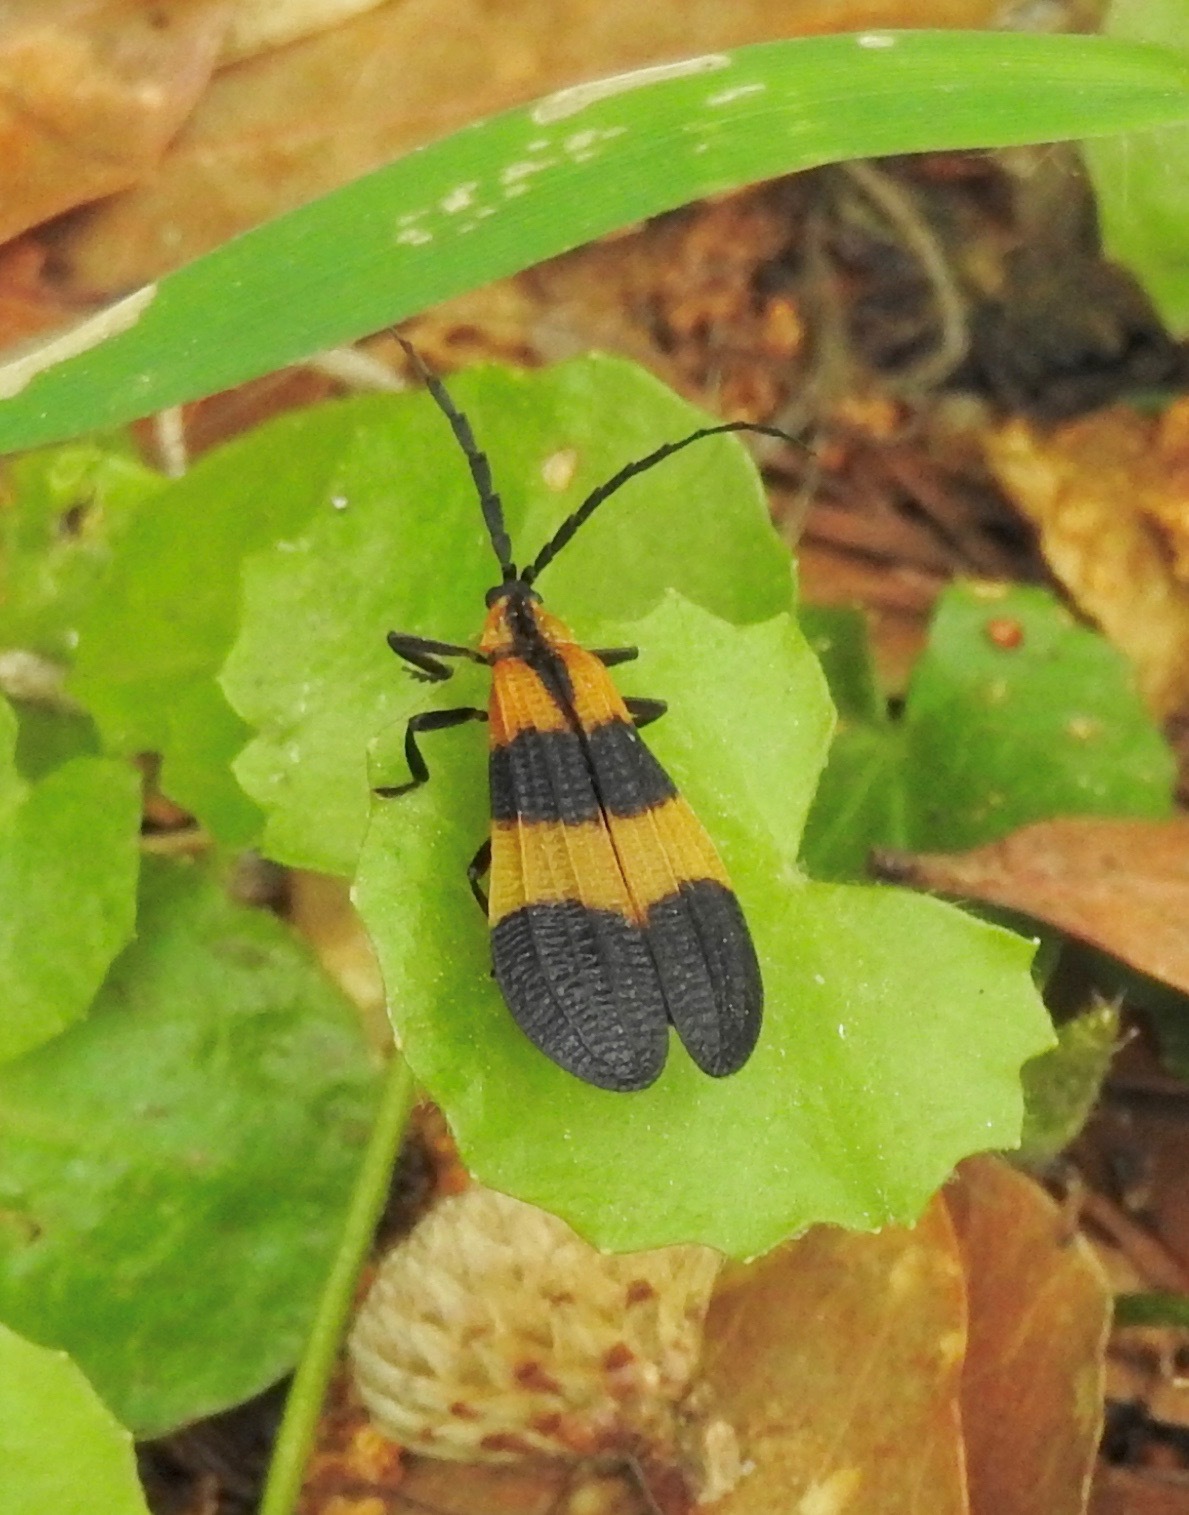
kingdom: Animalia
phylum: Arthropoda
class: Insecta
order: Coleoptera
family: Lycidae
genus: Calopteron
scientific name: Calopteron discrepans
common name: Banded net-winged beetle
